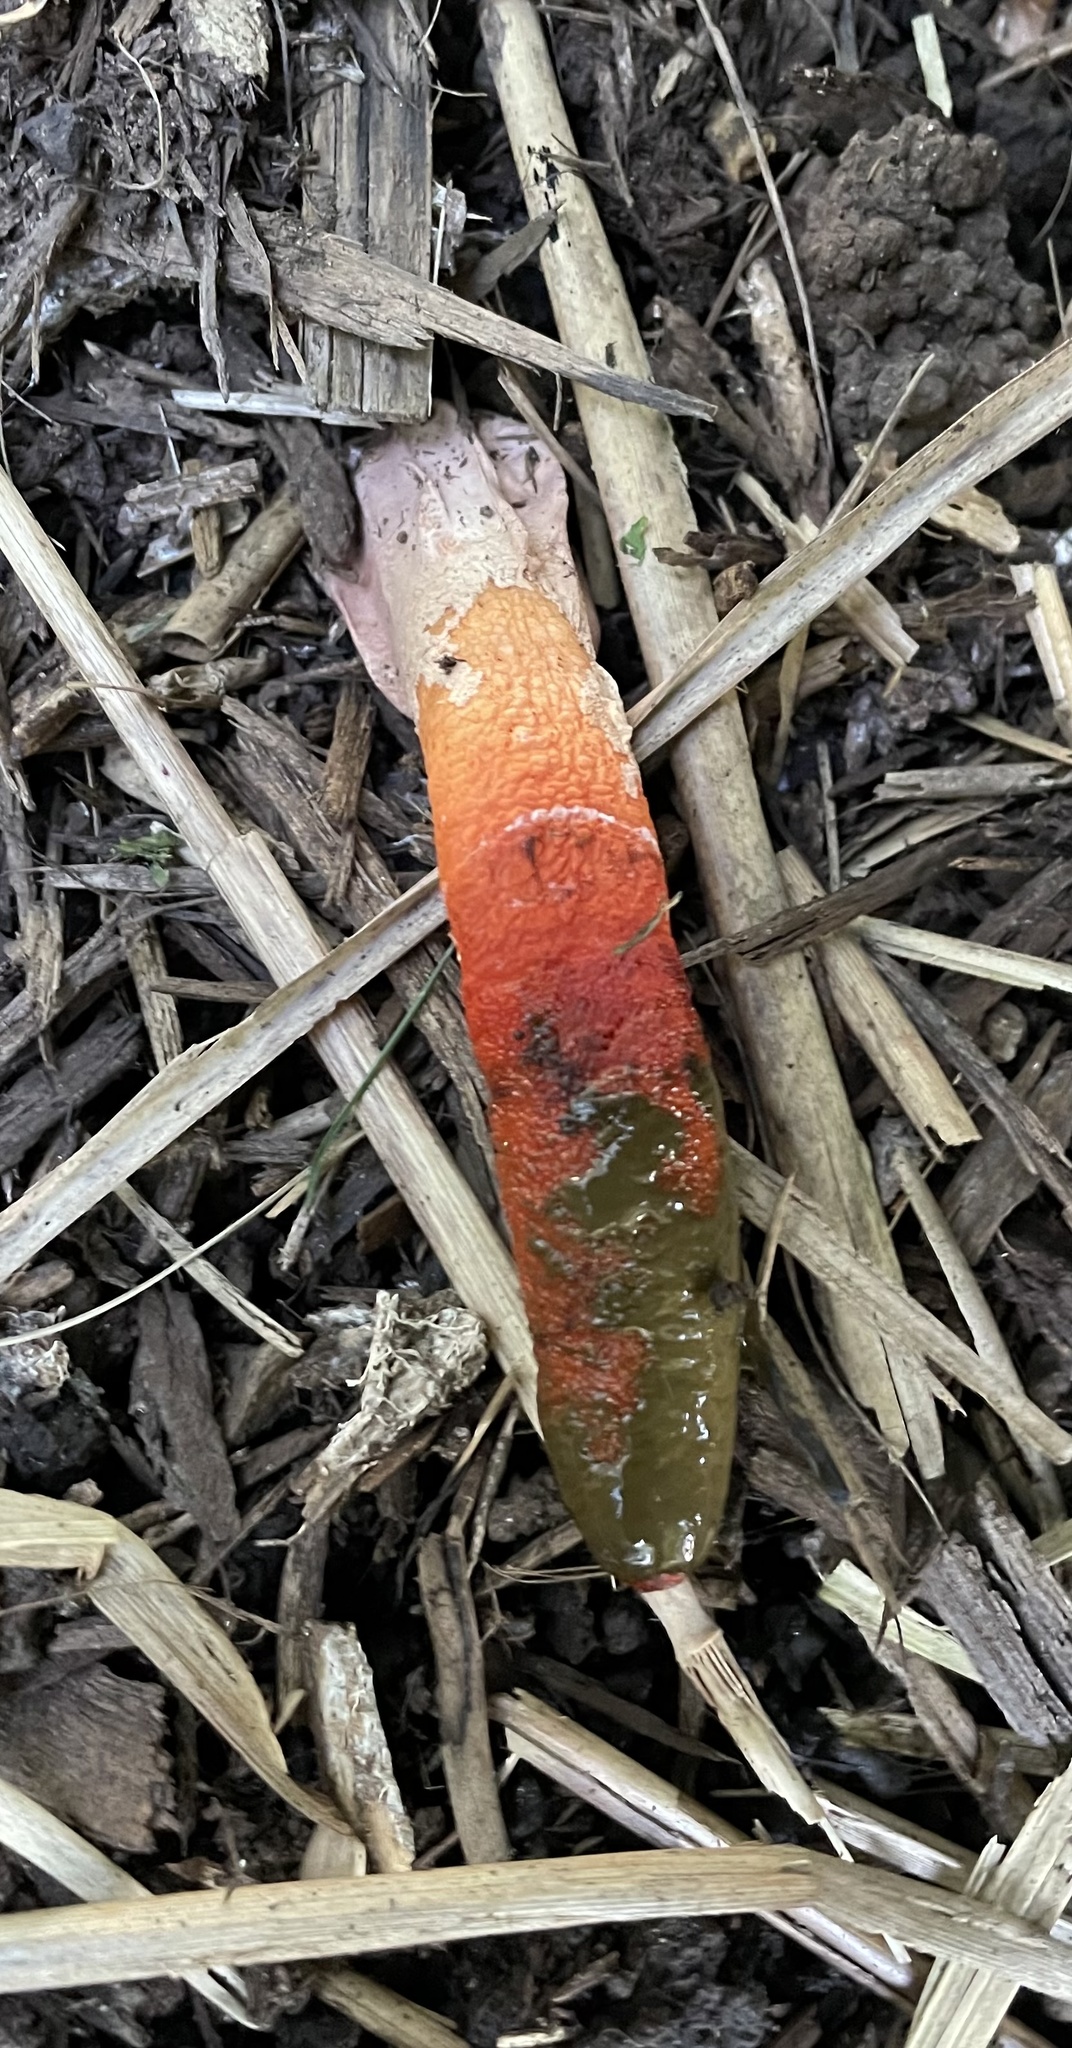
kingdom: Fungi
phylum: Basidiomycota
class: Agaricomycetes
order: Phallales
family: Phallaceae
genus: Mutinus
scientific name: Mutinus elegans
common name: Devil's dipstick
